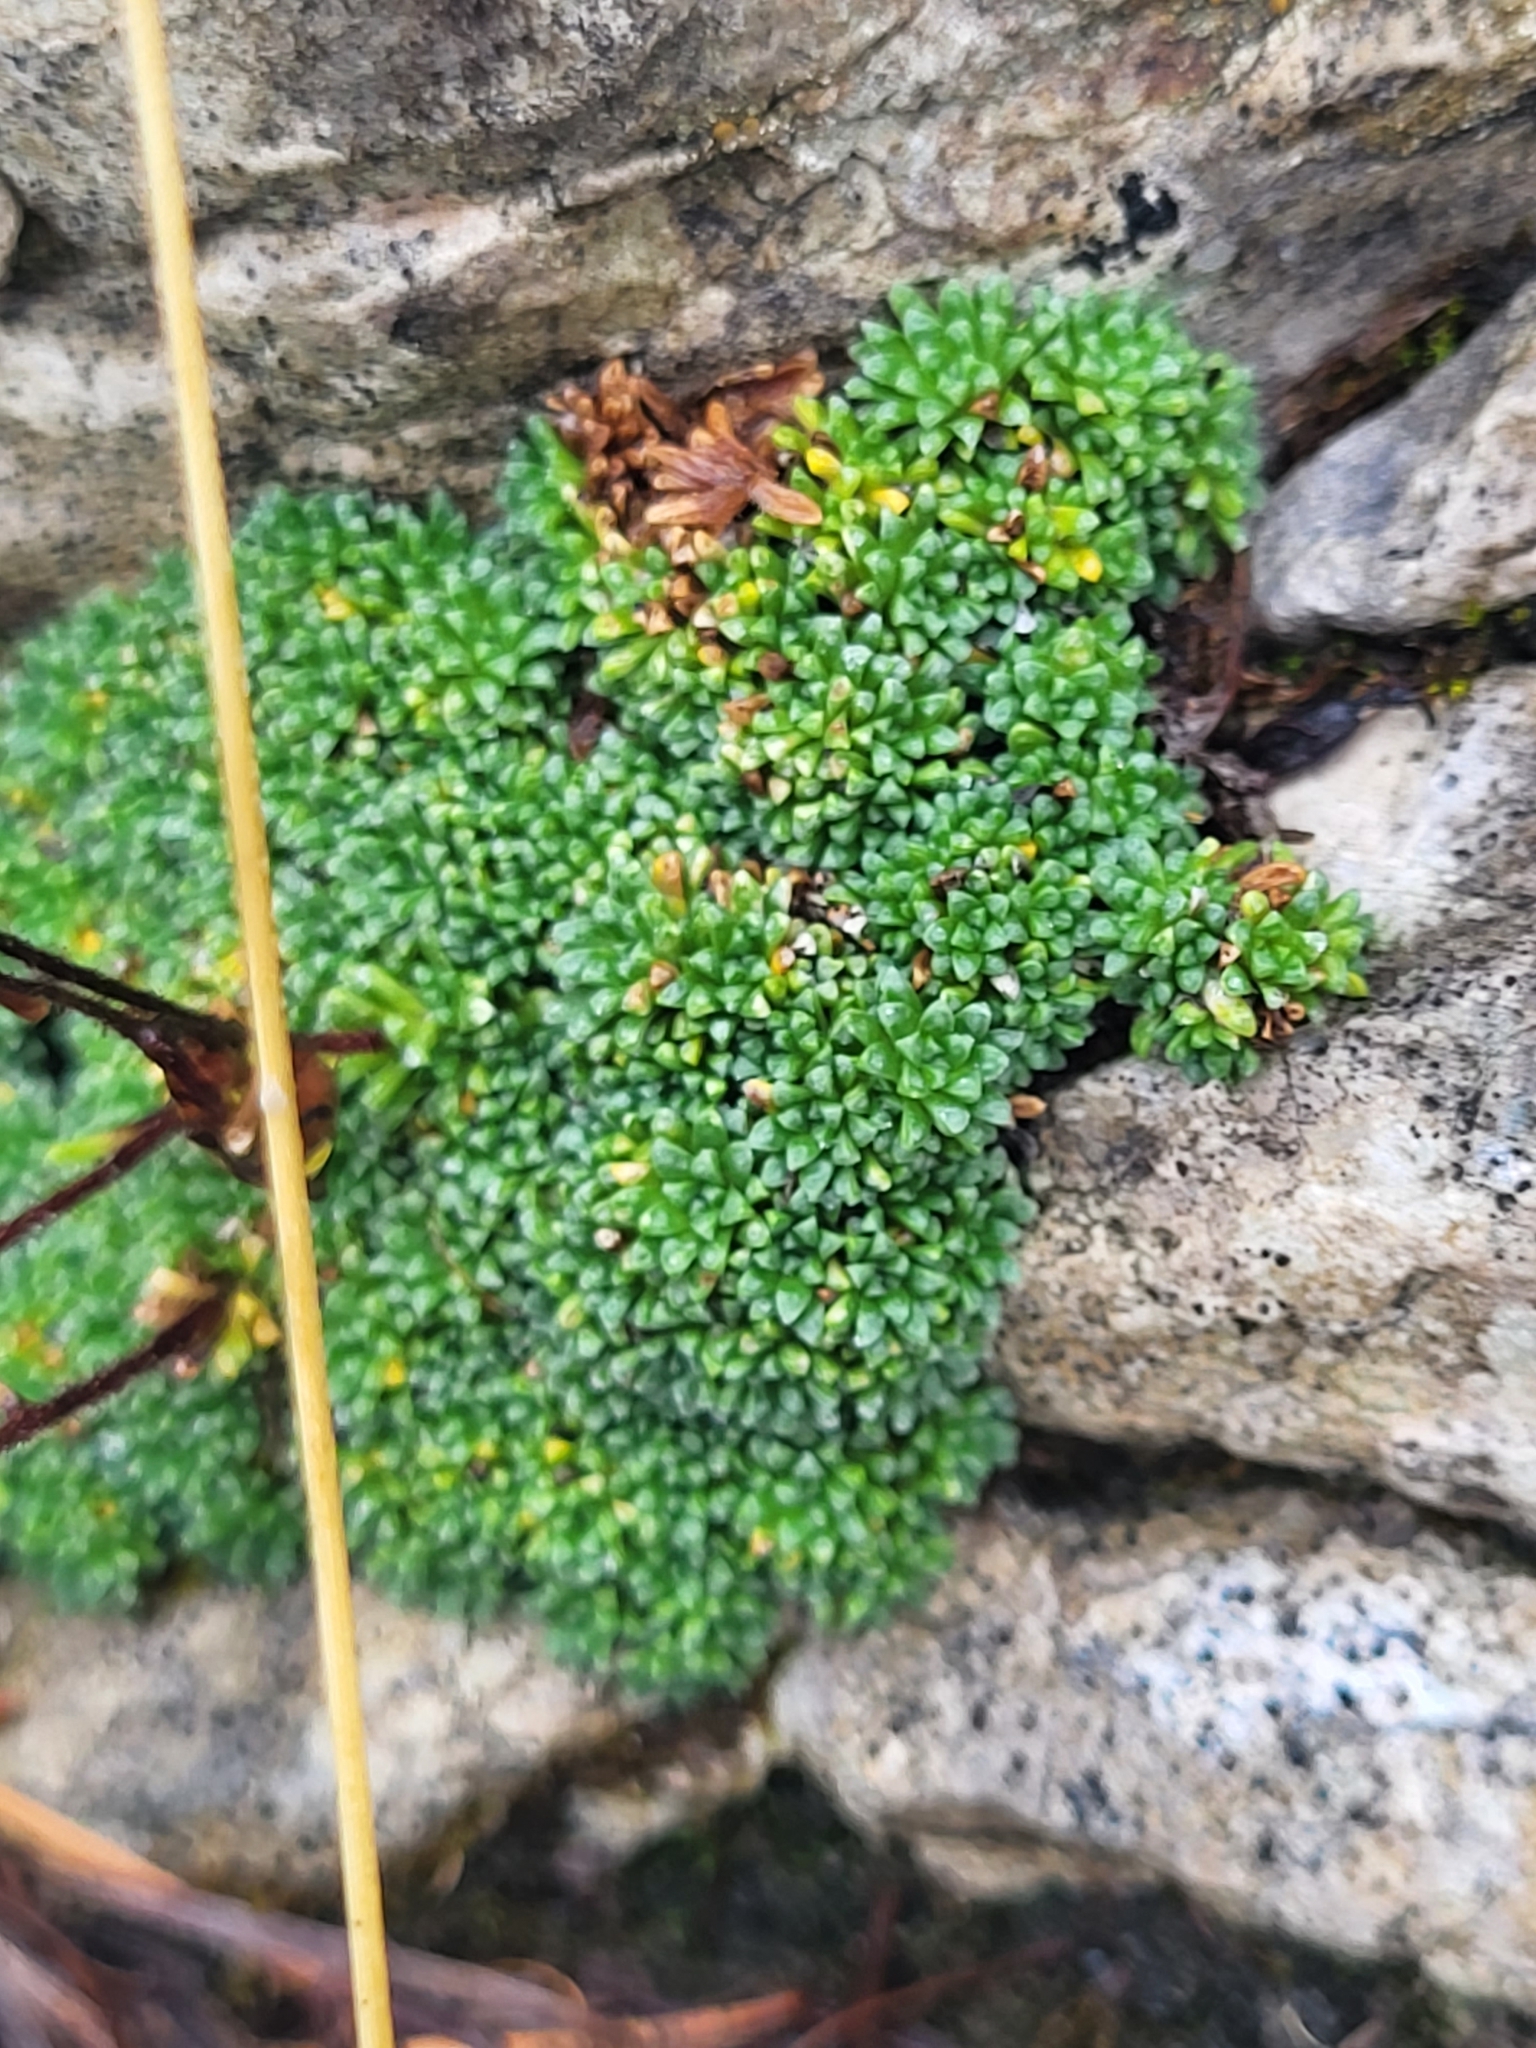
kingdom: Plantae
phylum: Tracheophyta
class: Magnoliopsida
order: Saxifragales
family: Saxifragaceae
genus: Saxifraga
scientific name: Saxifraga squarrosa
